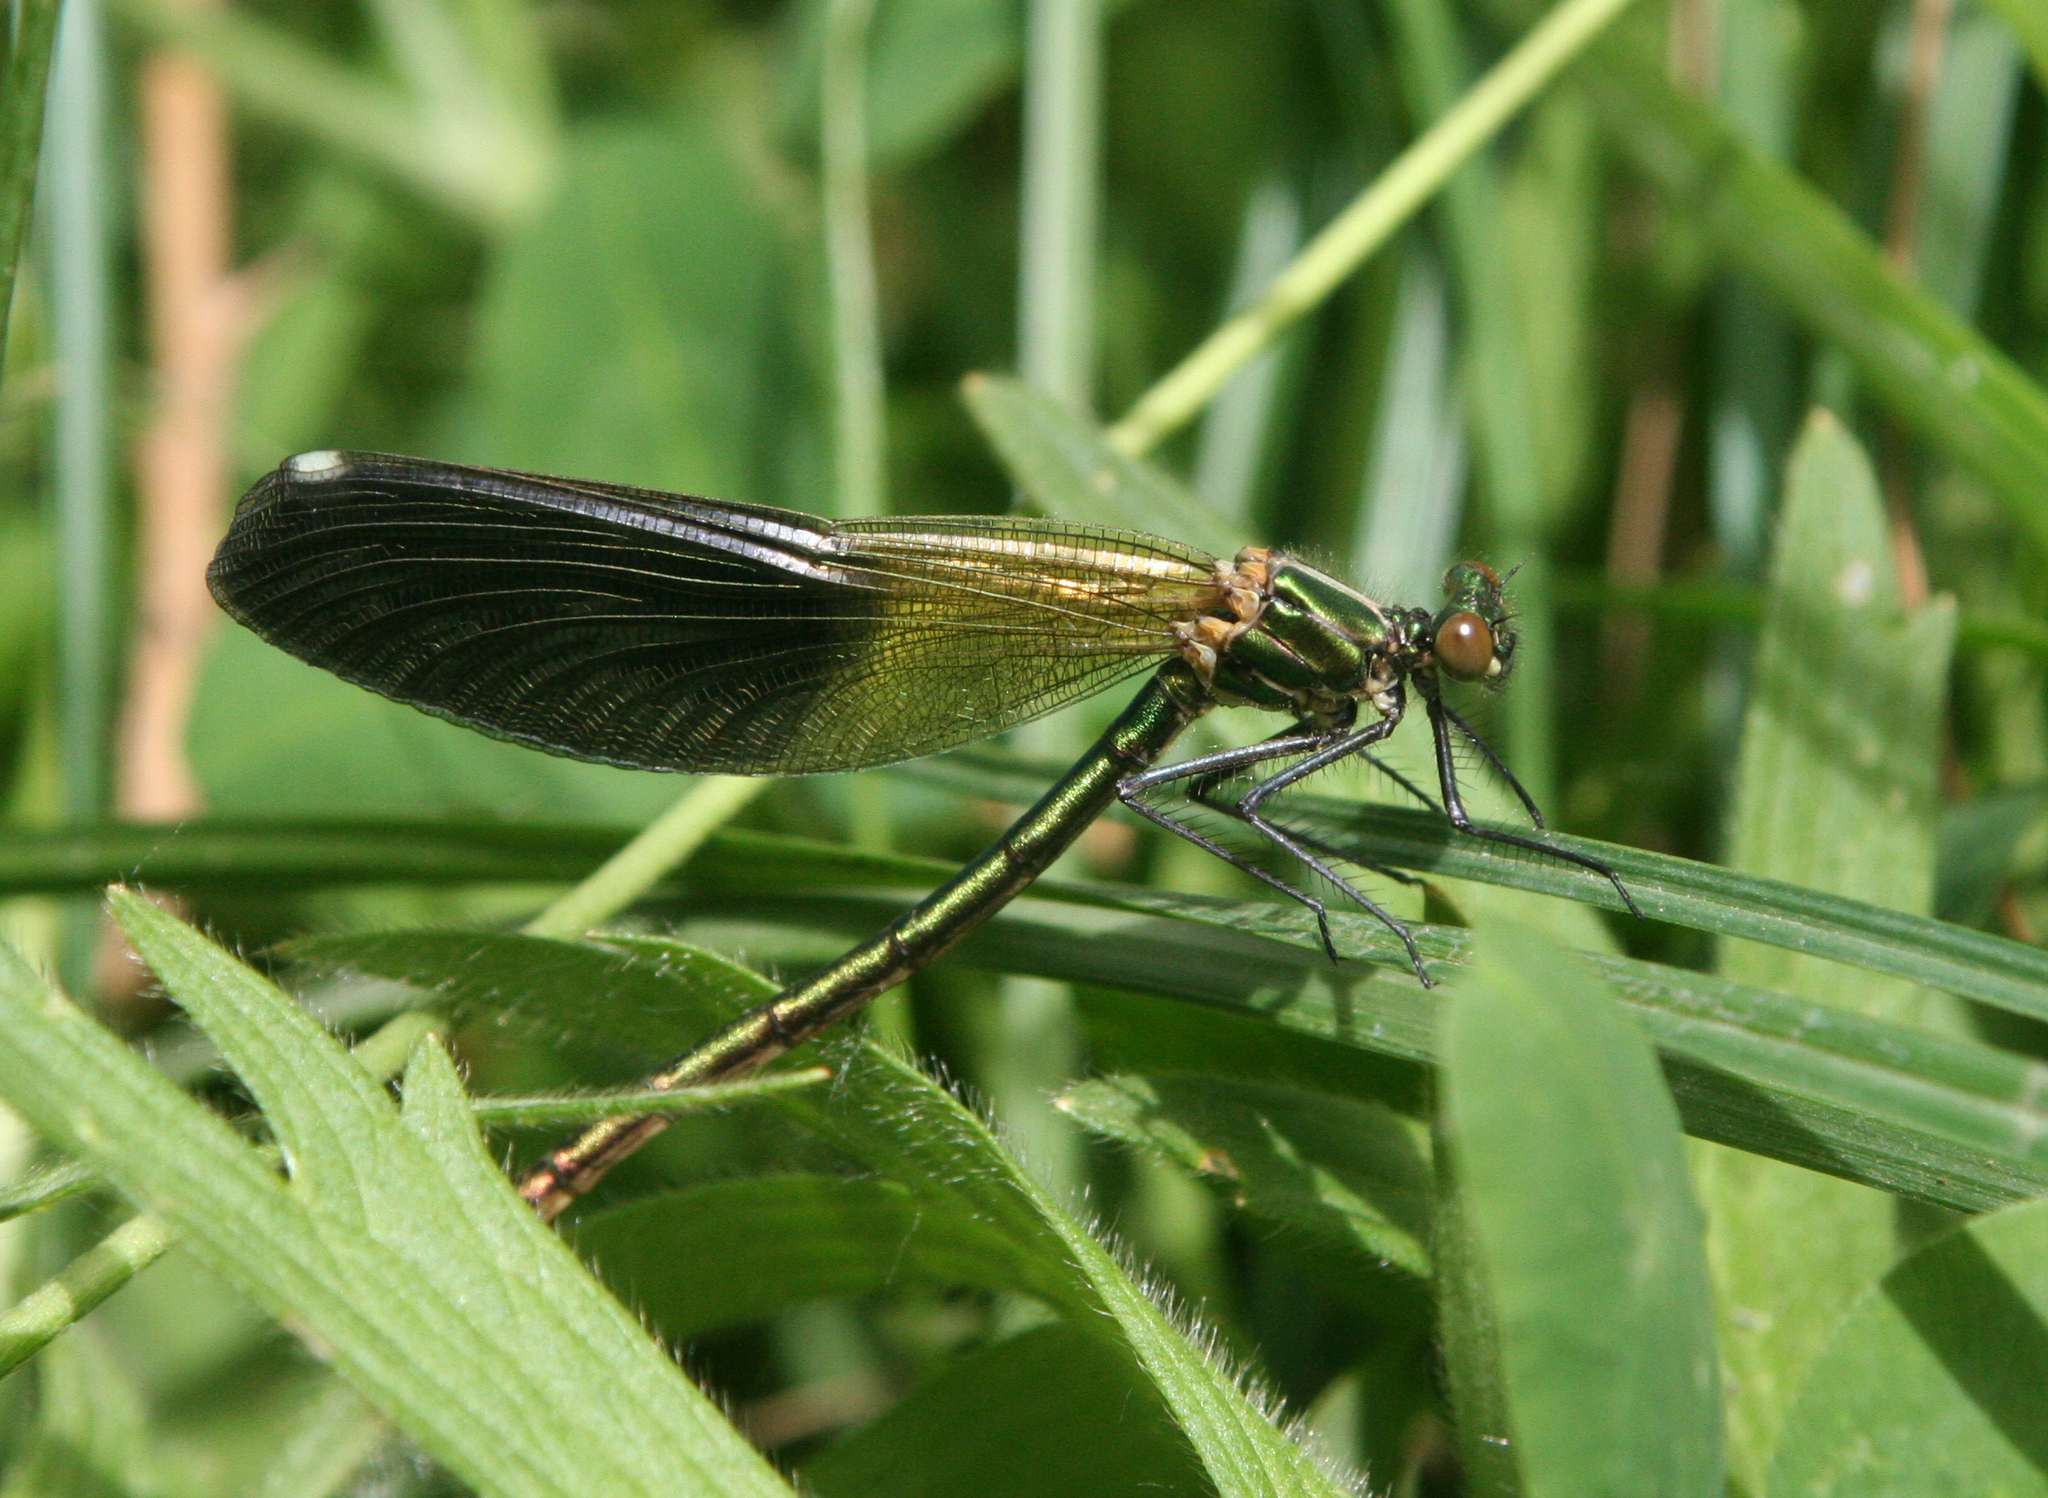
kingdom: Animalia
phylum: Arthropoda
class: Insecta
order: Odonata
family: Calopterygidae
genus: Calopteryx
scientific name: Calopteryx splendens
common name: Banded demoiselle
